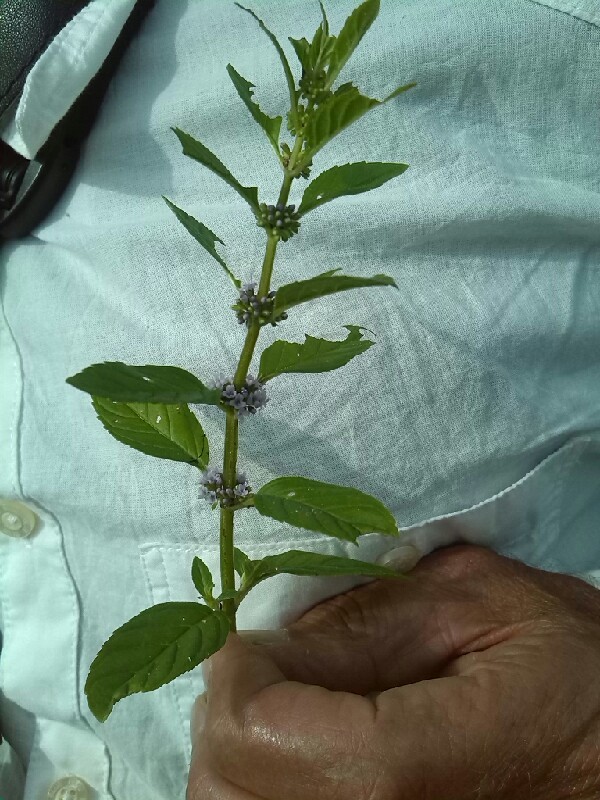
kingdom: Plantae
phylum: Tracheophyta
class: Magnoliopsida
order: Lamiales
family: Lamiaceae
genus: Mentha
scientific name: Mentha arvensis
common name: Corn mint
